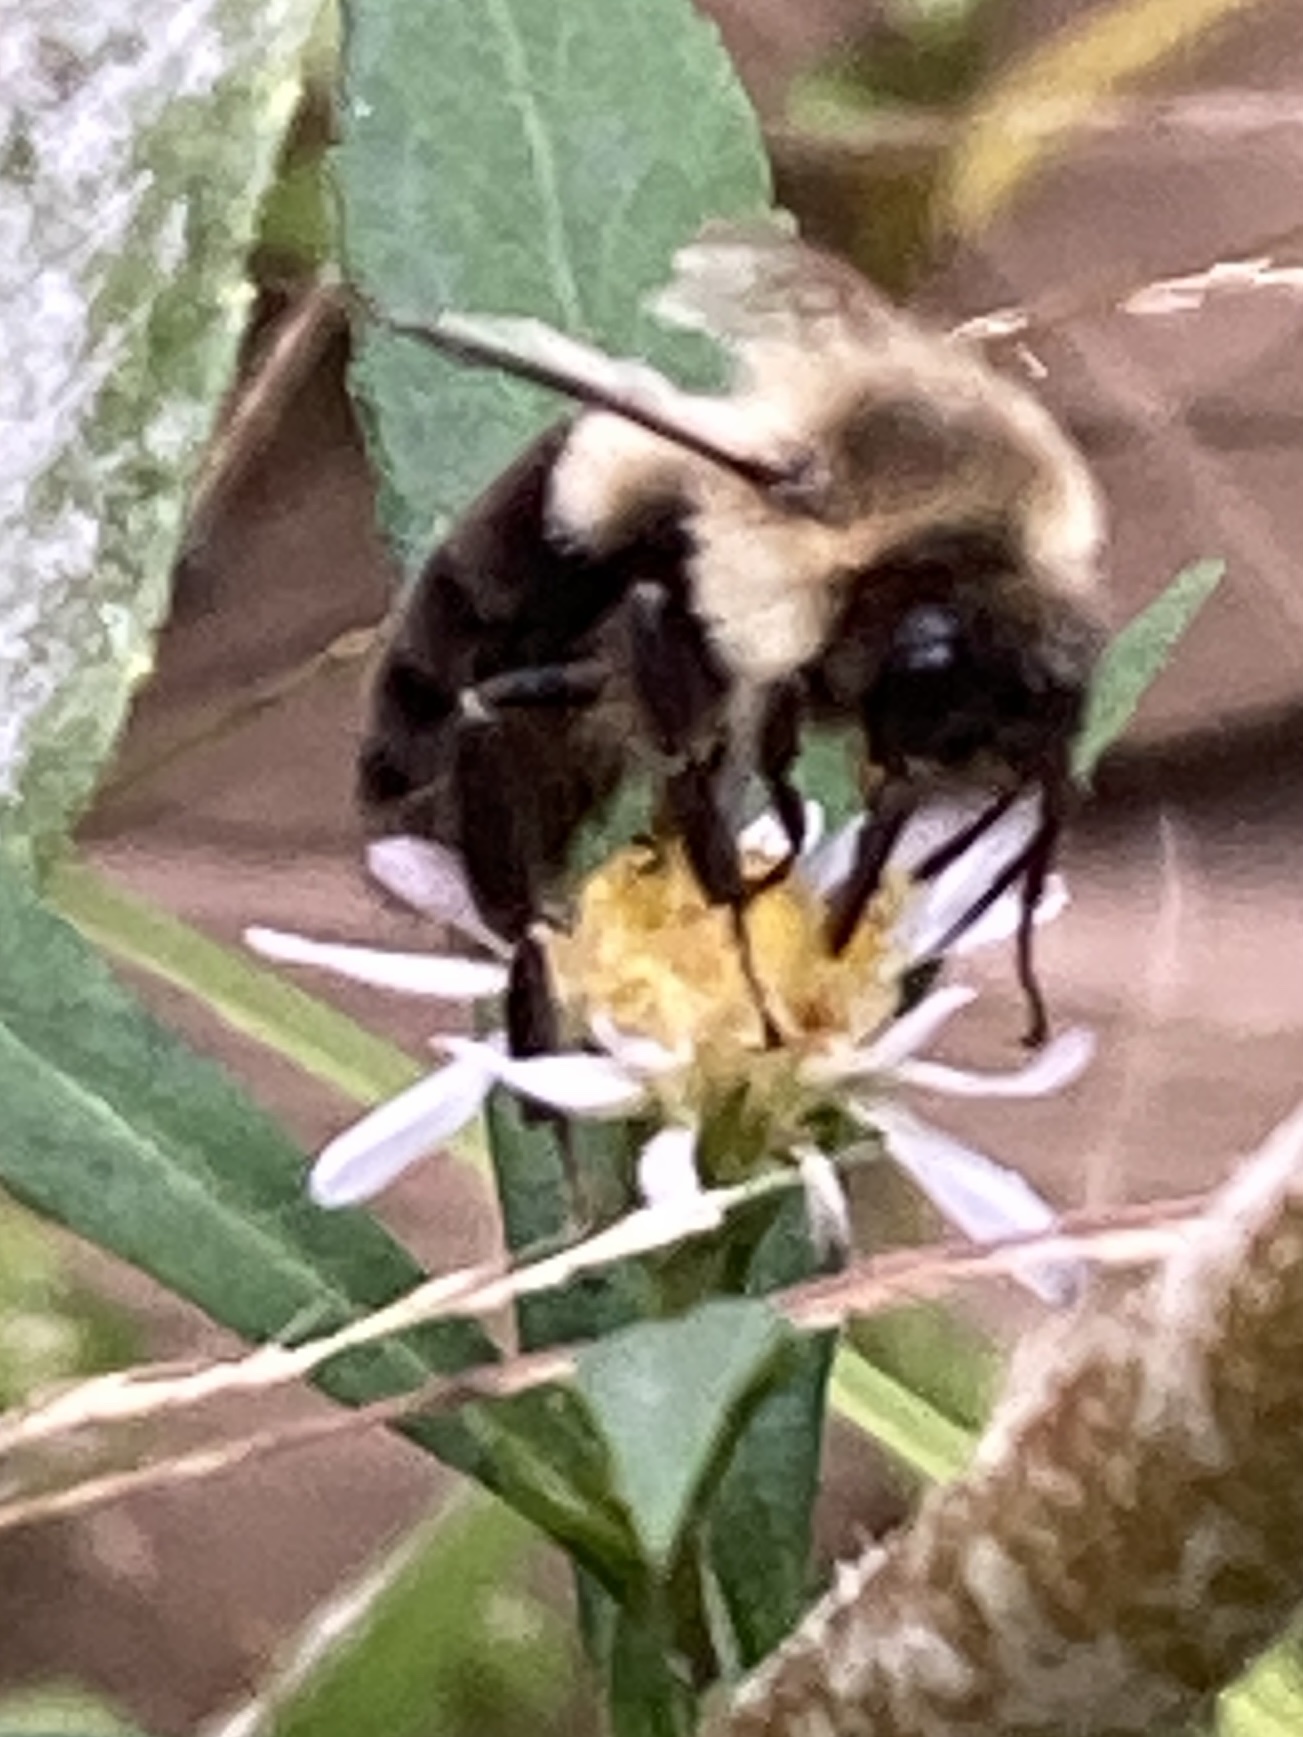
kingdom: Animalia
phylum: Arthropoda
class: Insecta
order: Hymenoptera
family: Apidae
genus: Bombus
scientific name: Bombus impatiens
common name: Common eastern bumble bee
